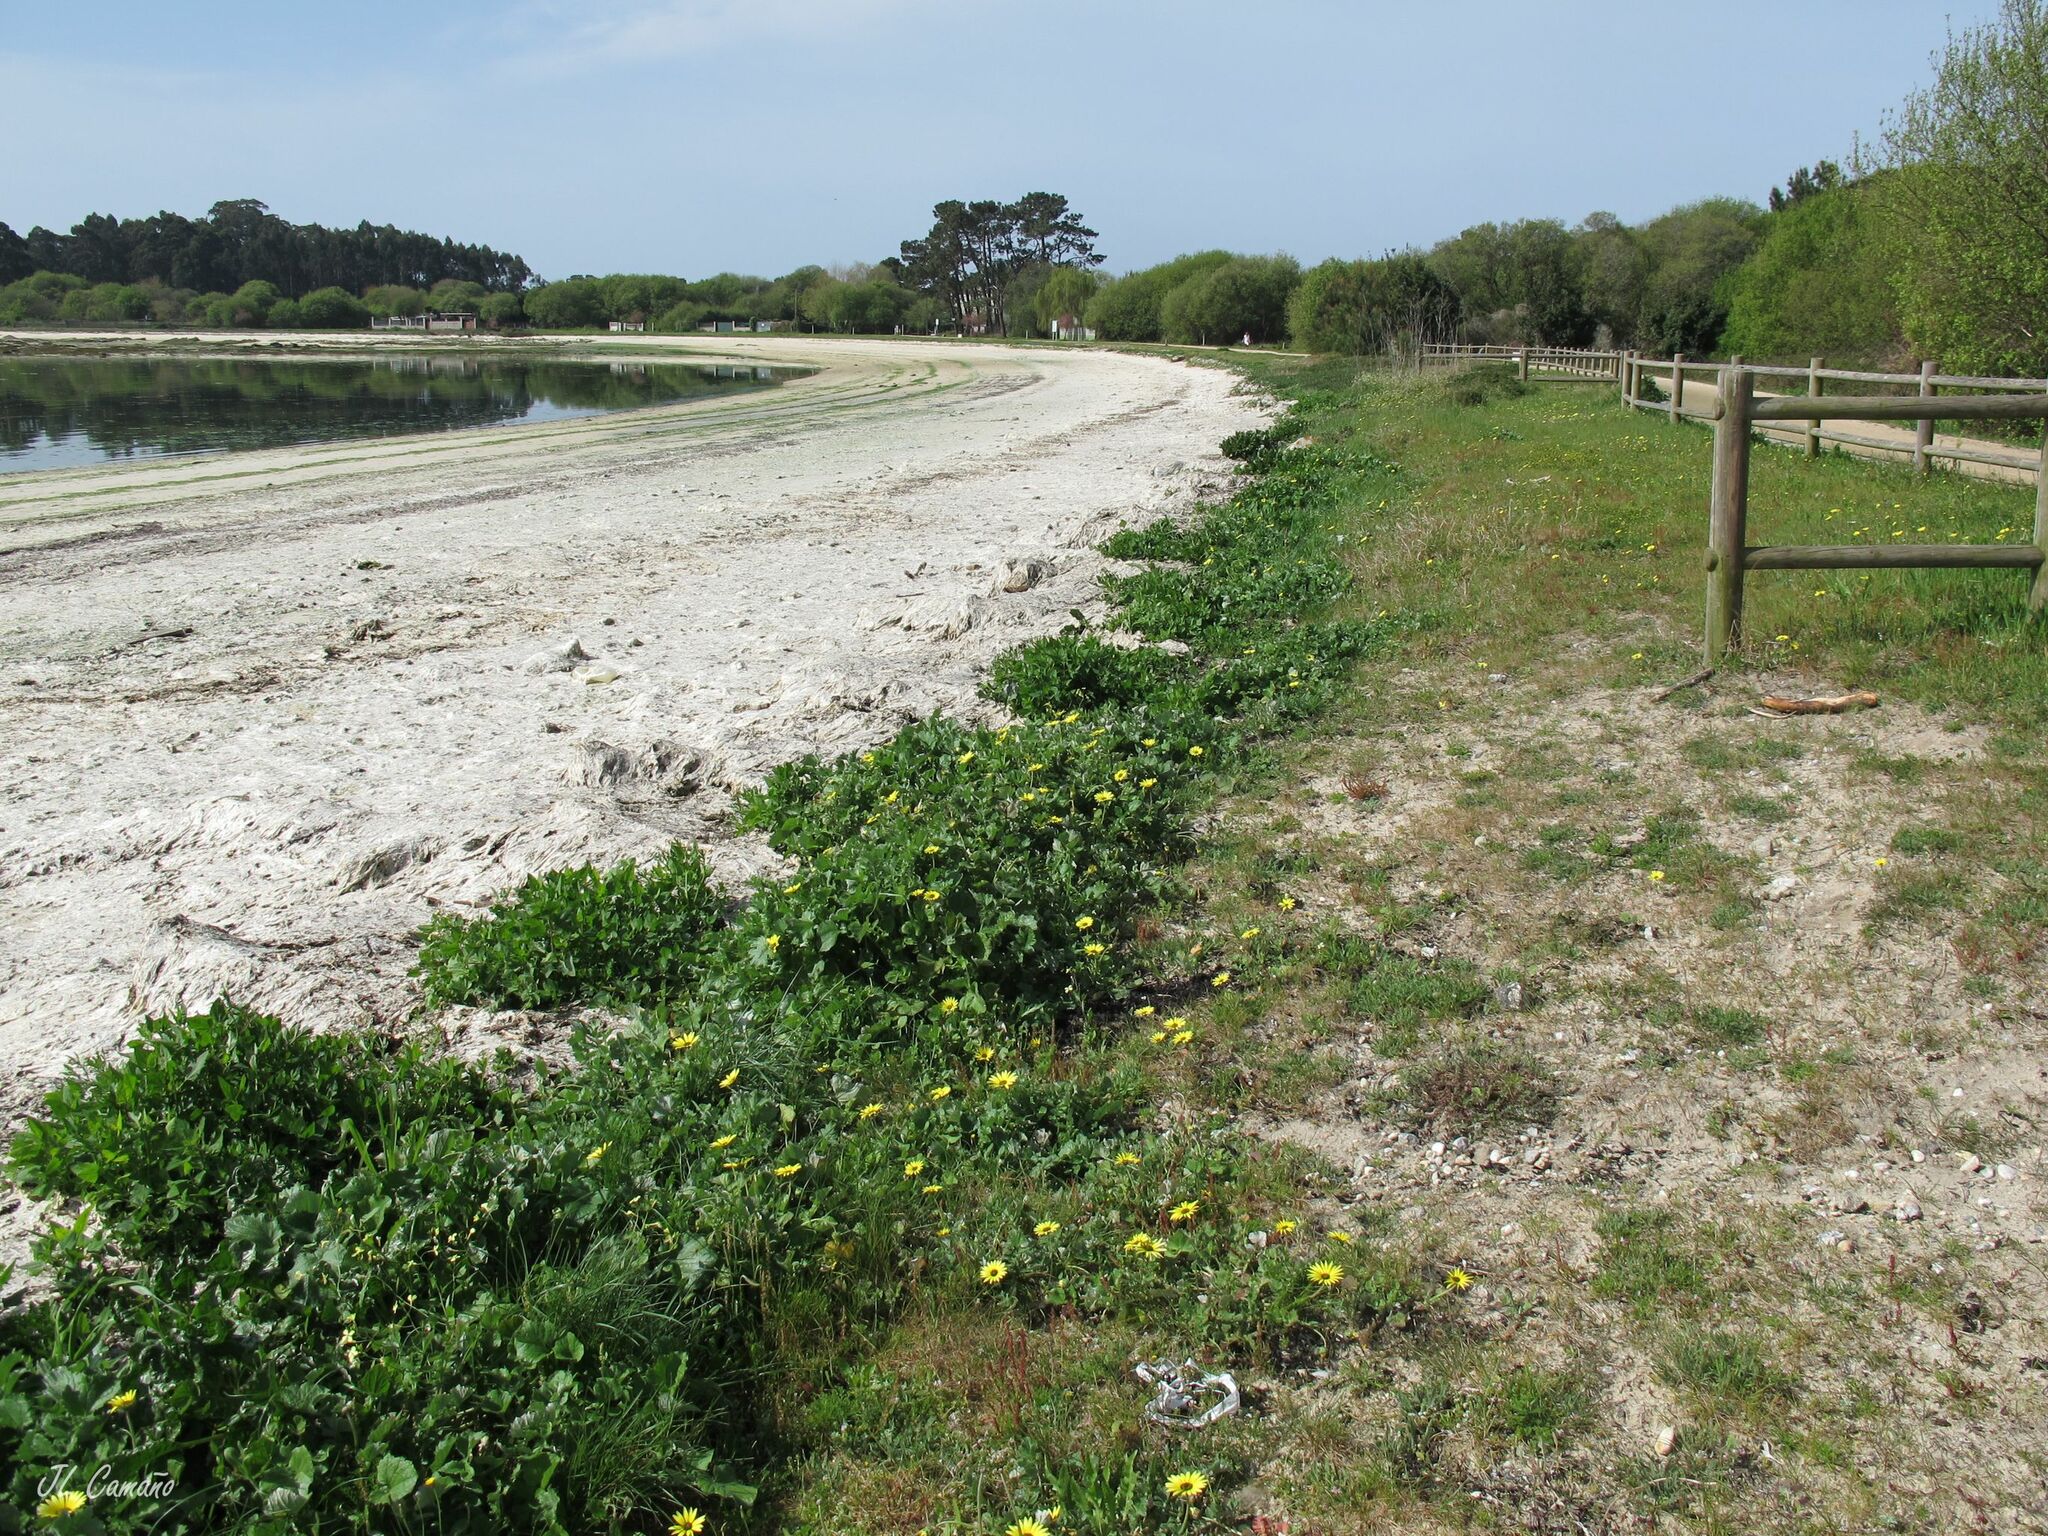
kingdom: Plantae
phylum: Tracheophyta
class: Magnoliopsida
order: Asterales
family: Asteraceae
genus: Filago
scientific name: Filago pygmaea
